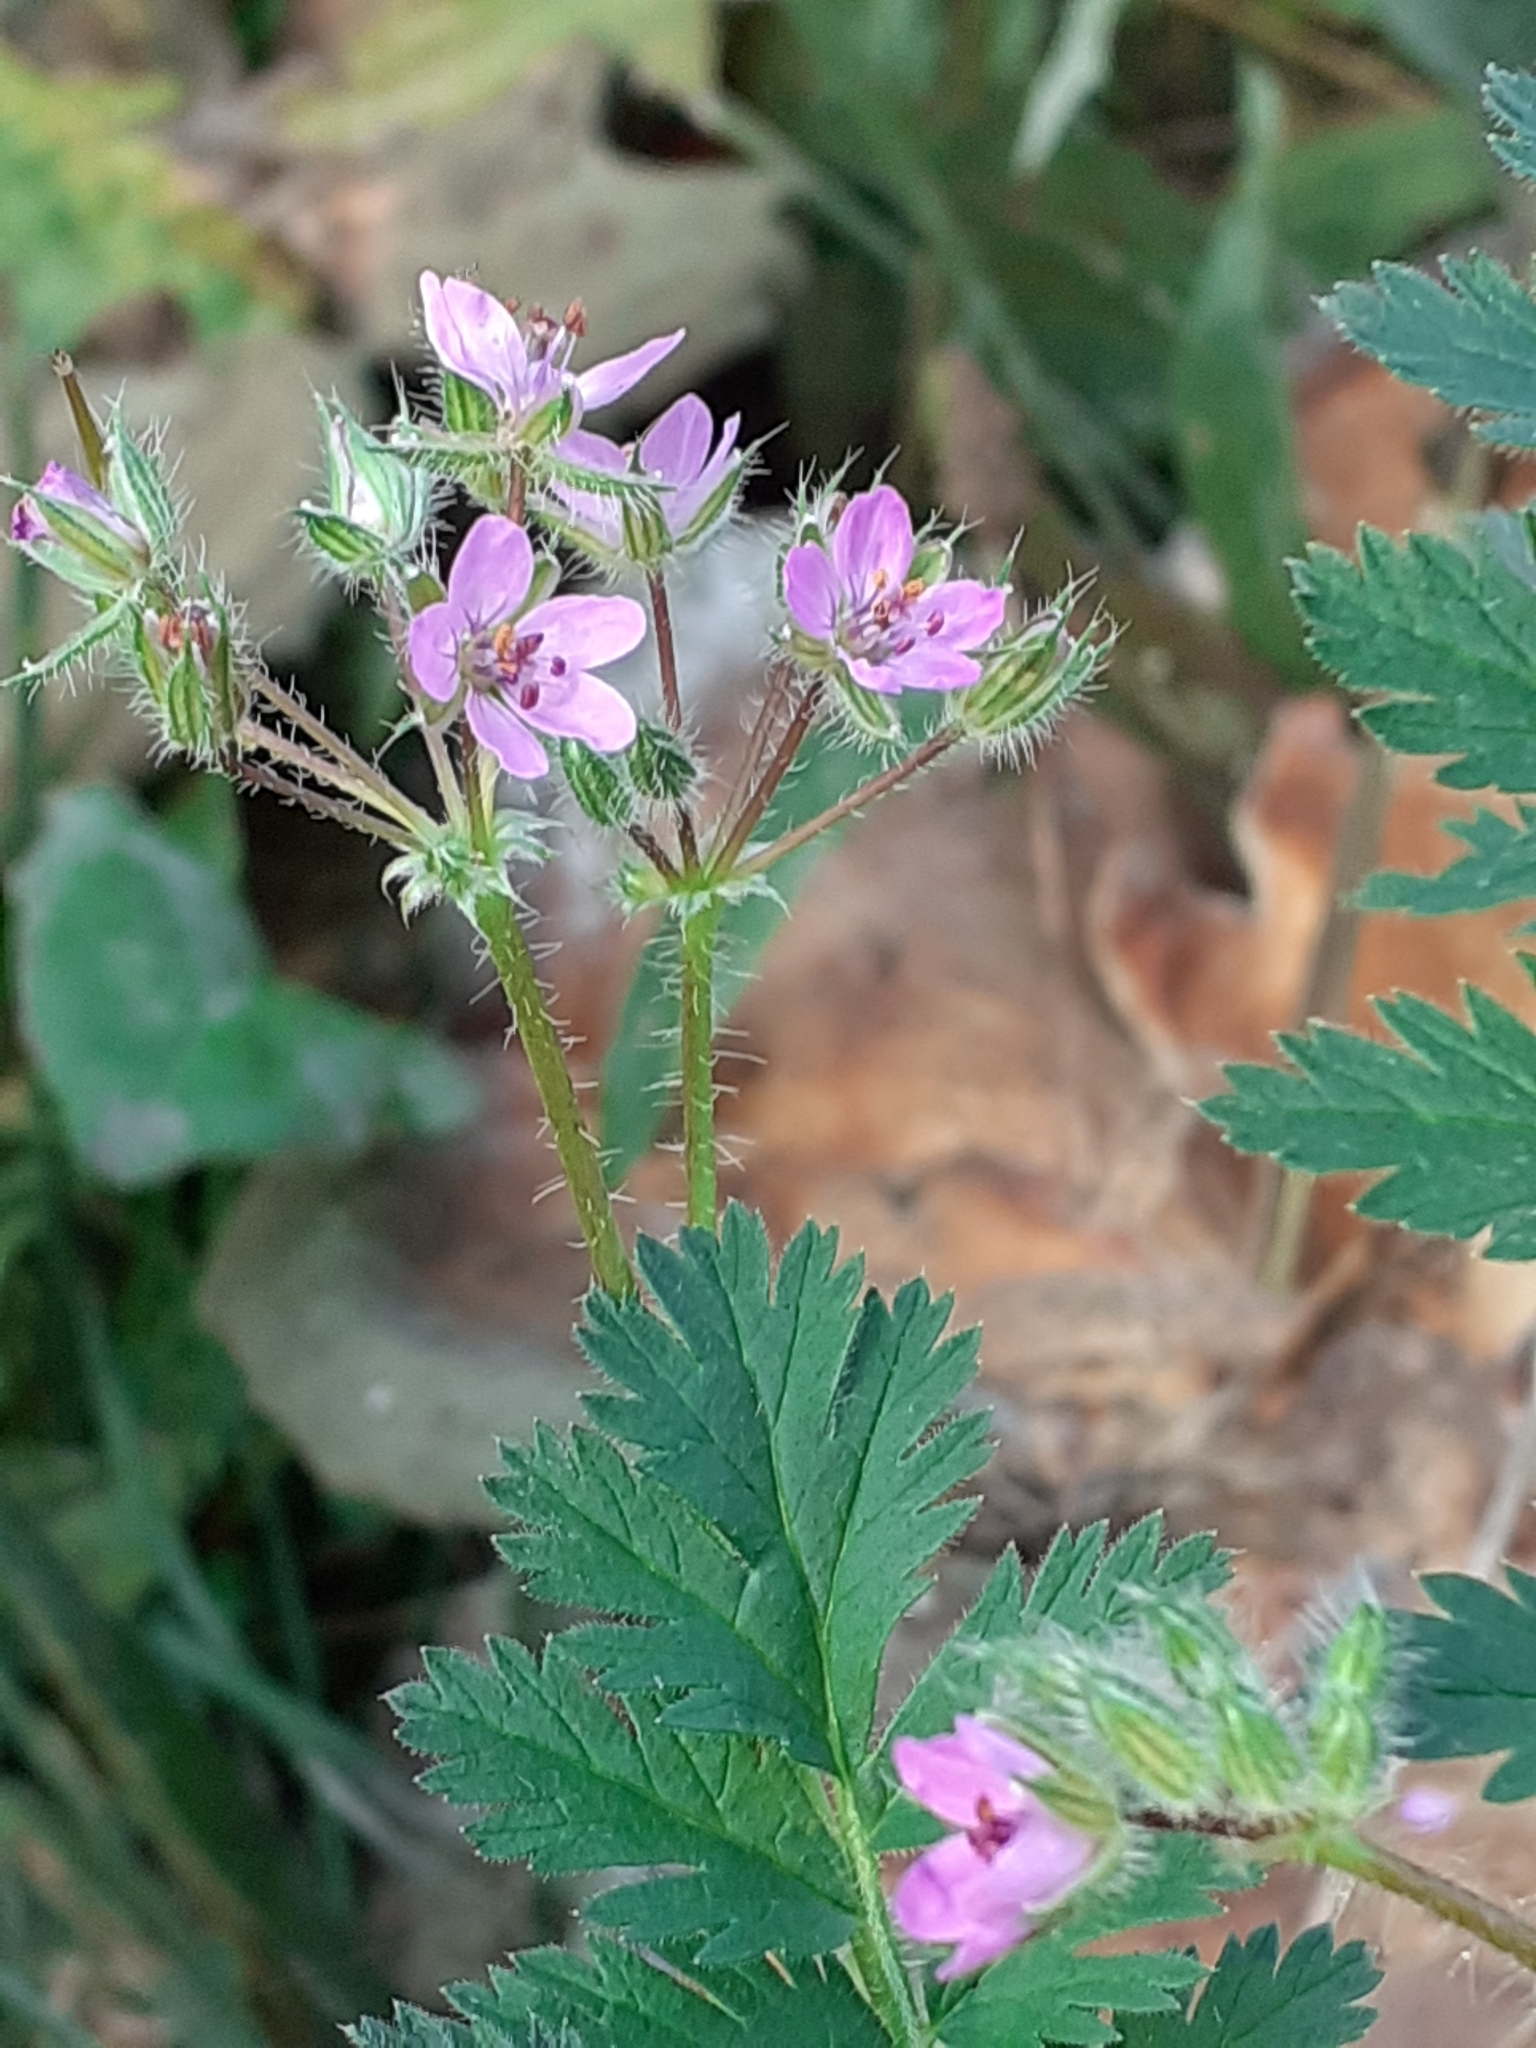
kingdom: Plantae
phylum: Tracheophyta
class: Magnoliopsida
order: Geraniales
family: Geraniaceae
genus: Erodium
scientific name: Erodium cicutarium
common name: Common stork's-bill
